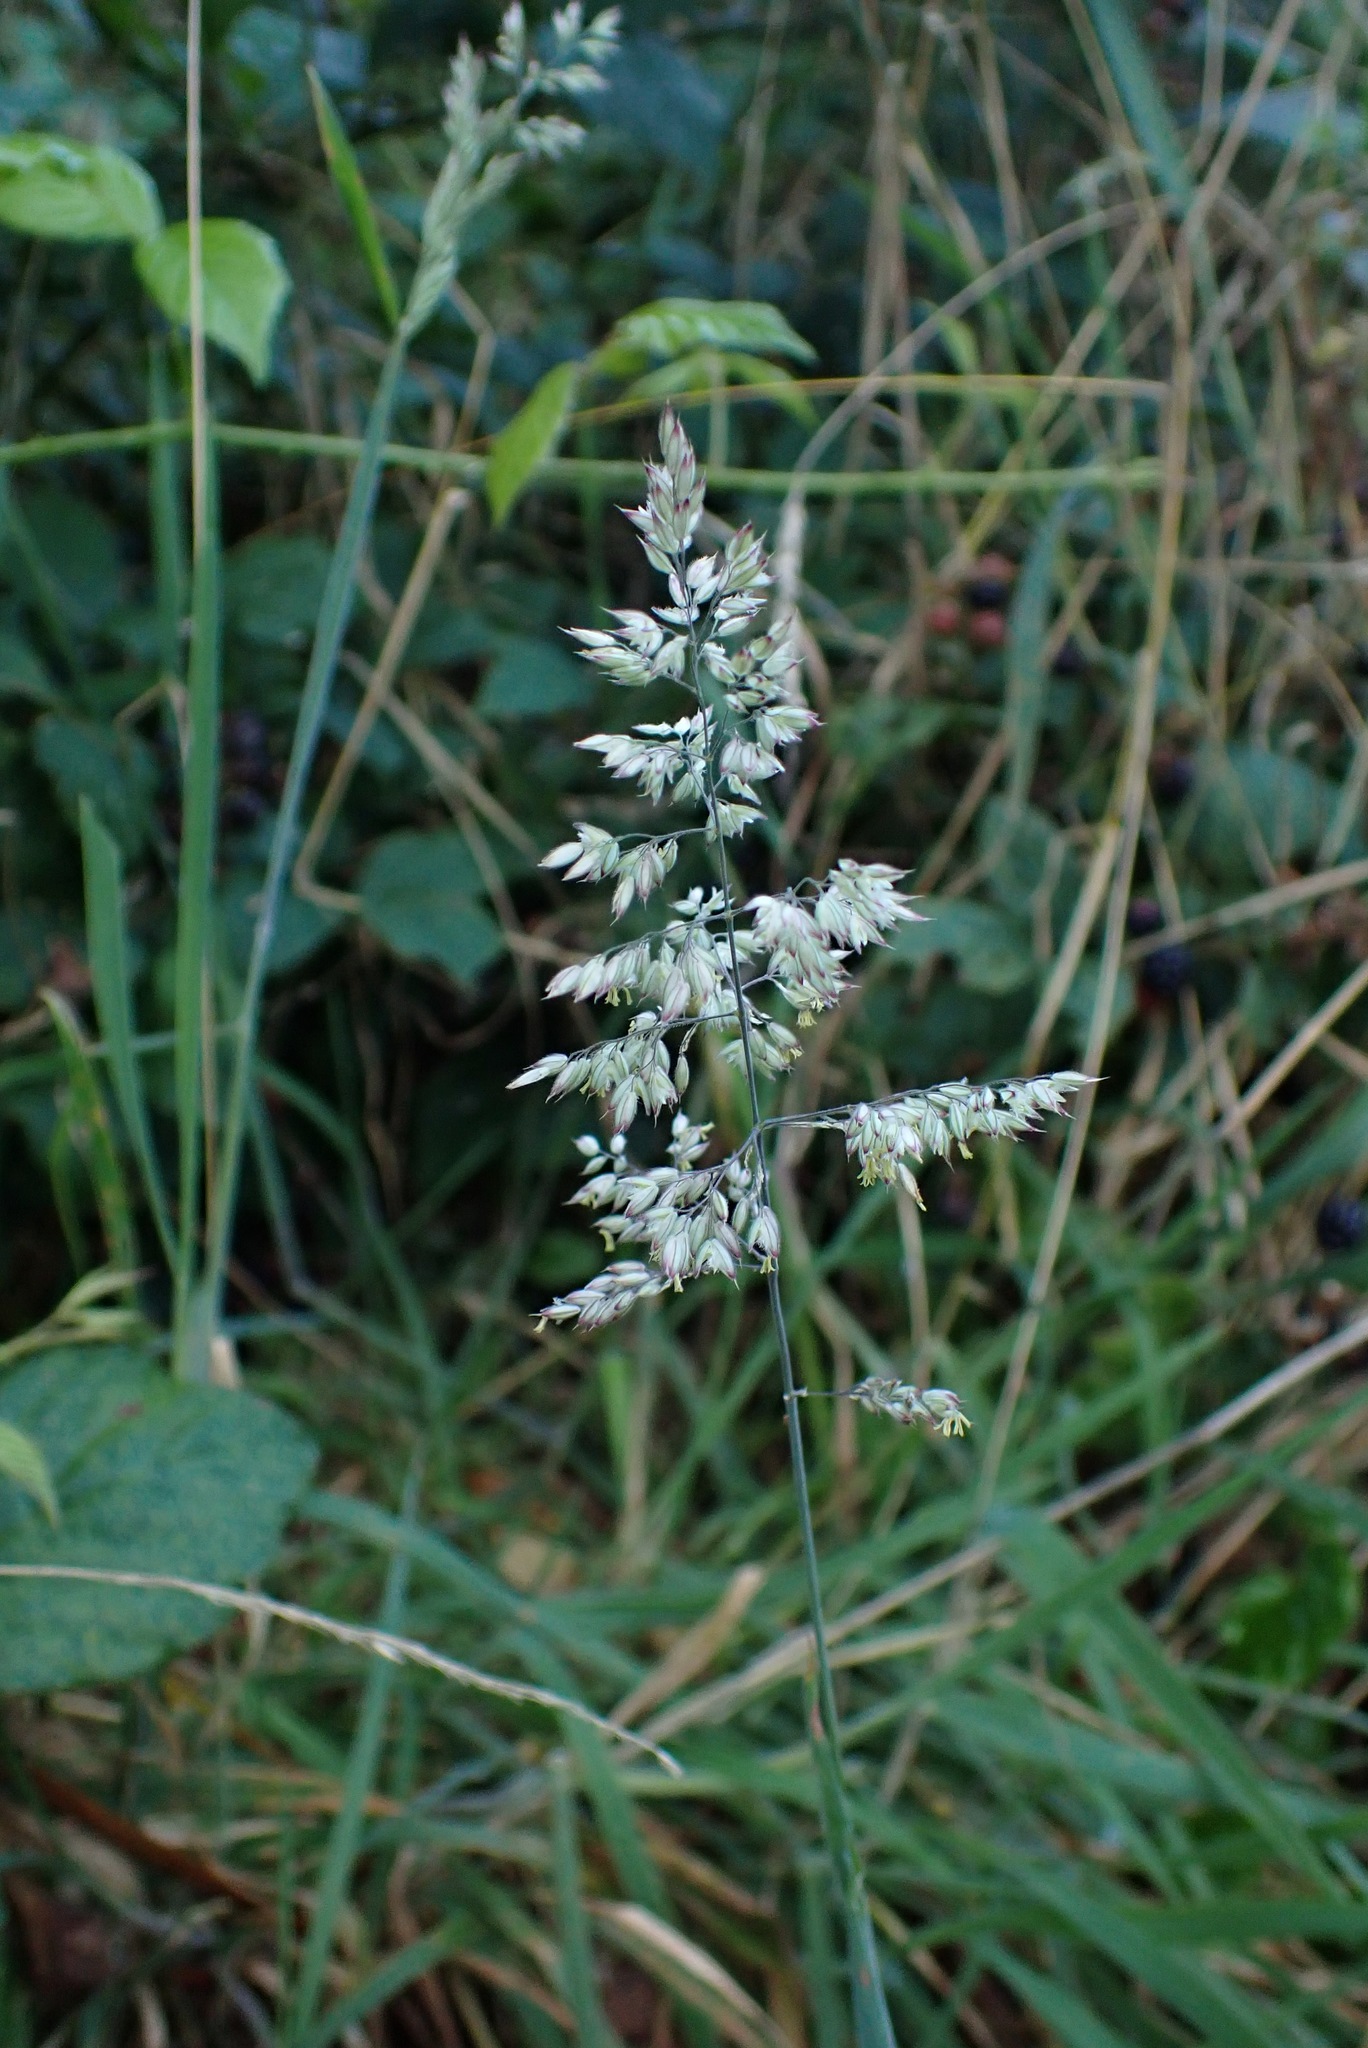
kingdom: Plantae
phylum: Tracheophyta
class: Liliopsida
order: Poales
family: Poaceae
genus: Holcus
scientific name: Holcus lanatus
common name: Yorkshire-fog
